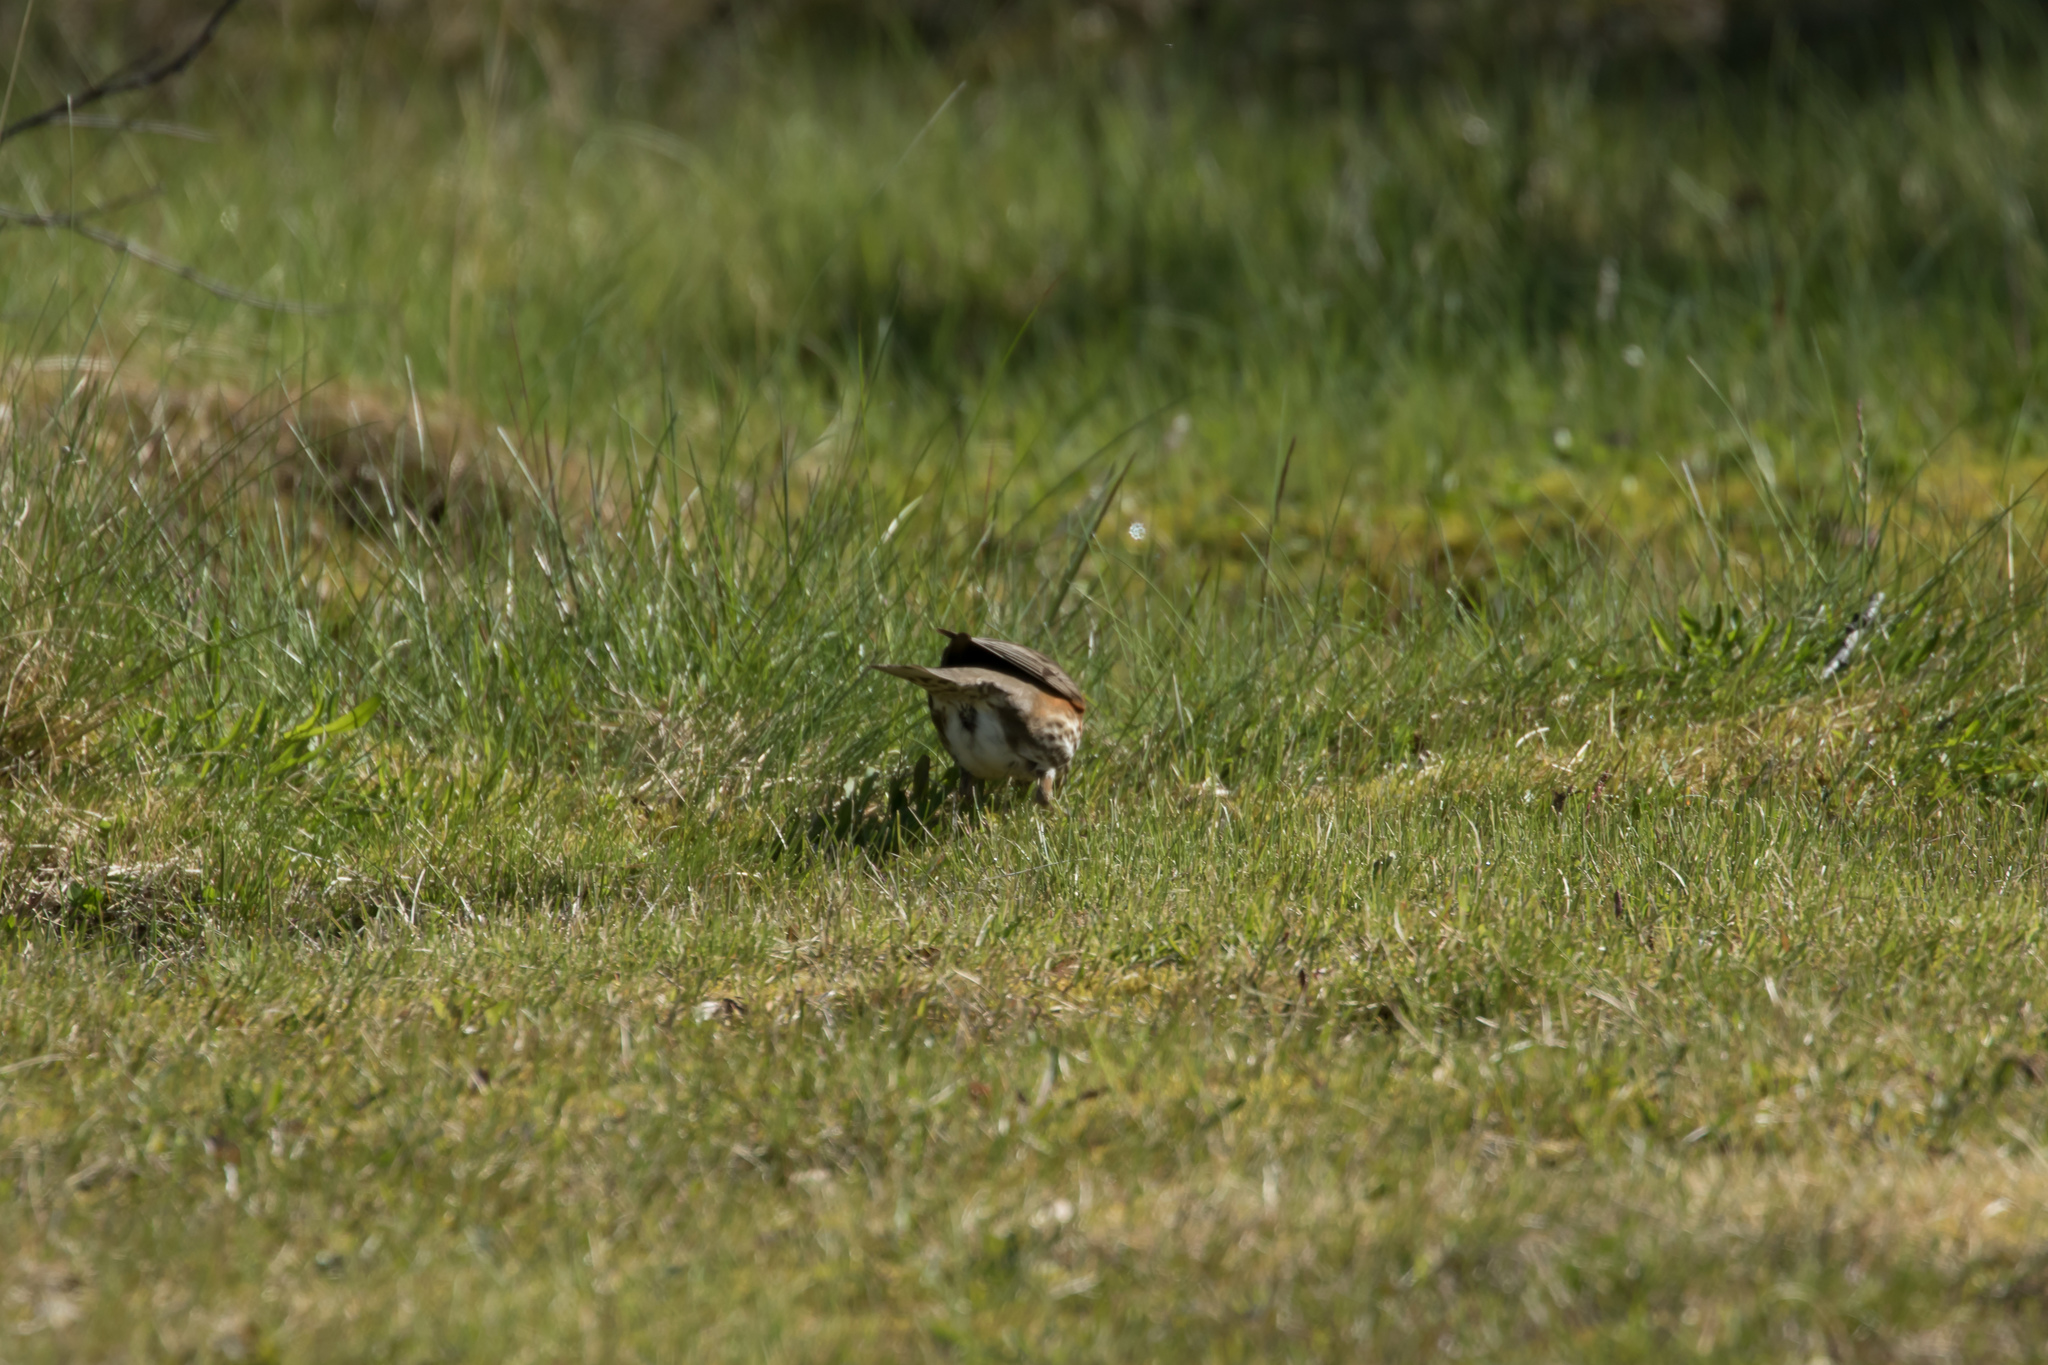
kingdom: Animalia
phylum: Chordata
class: Aves
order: Passeriformes
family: Turdidae
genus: Turdus
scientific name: Turdus iliacus
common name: Redwing
